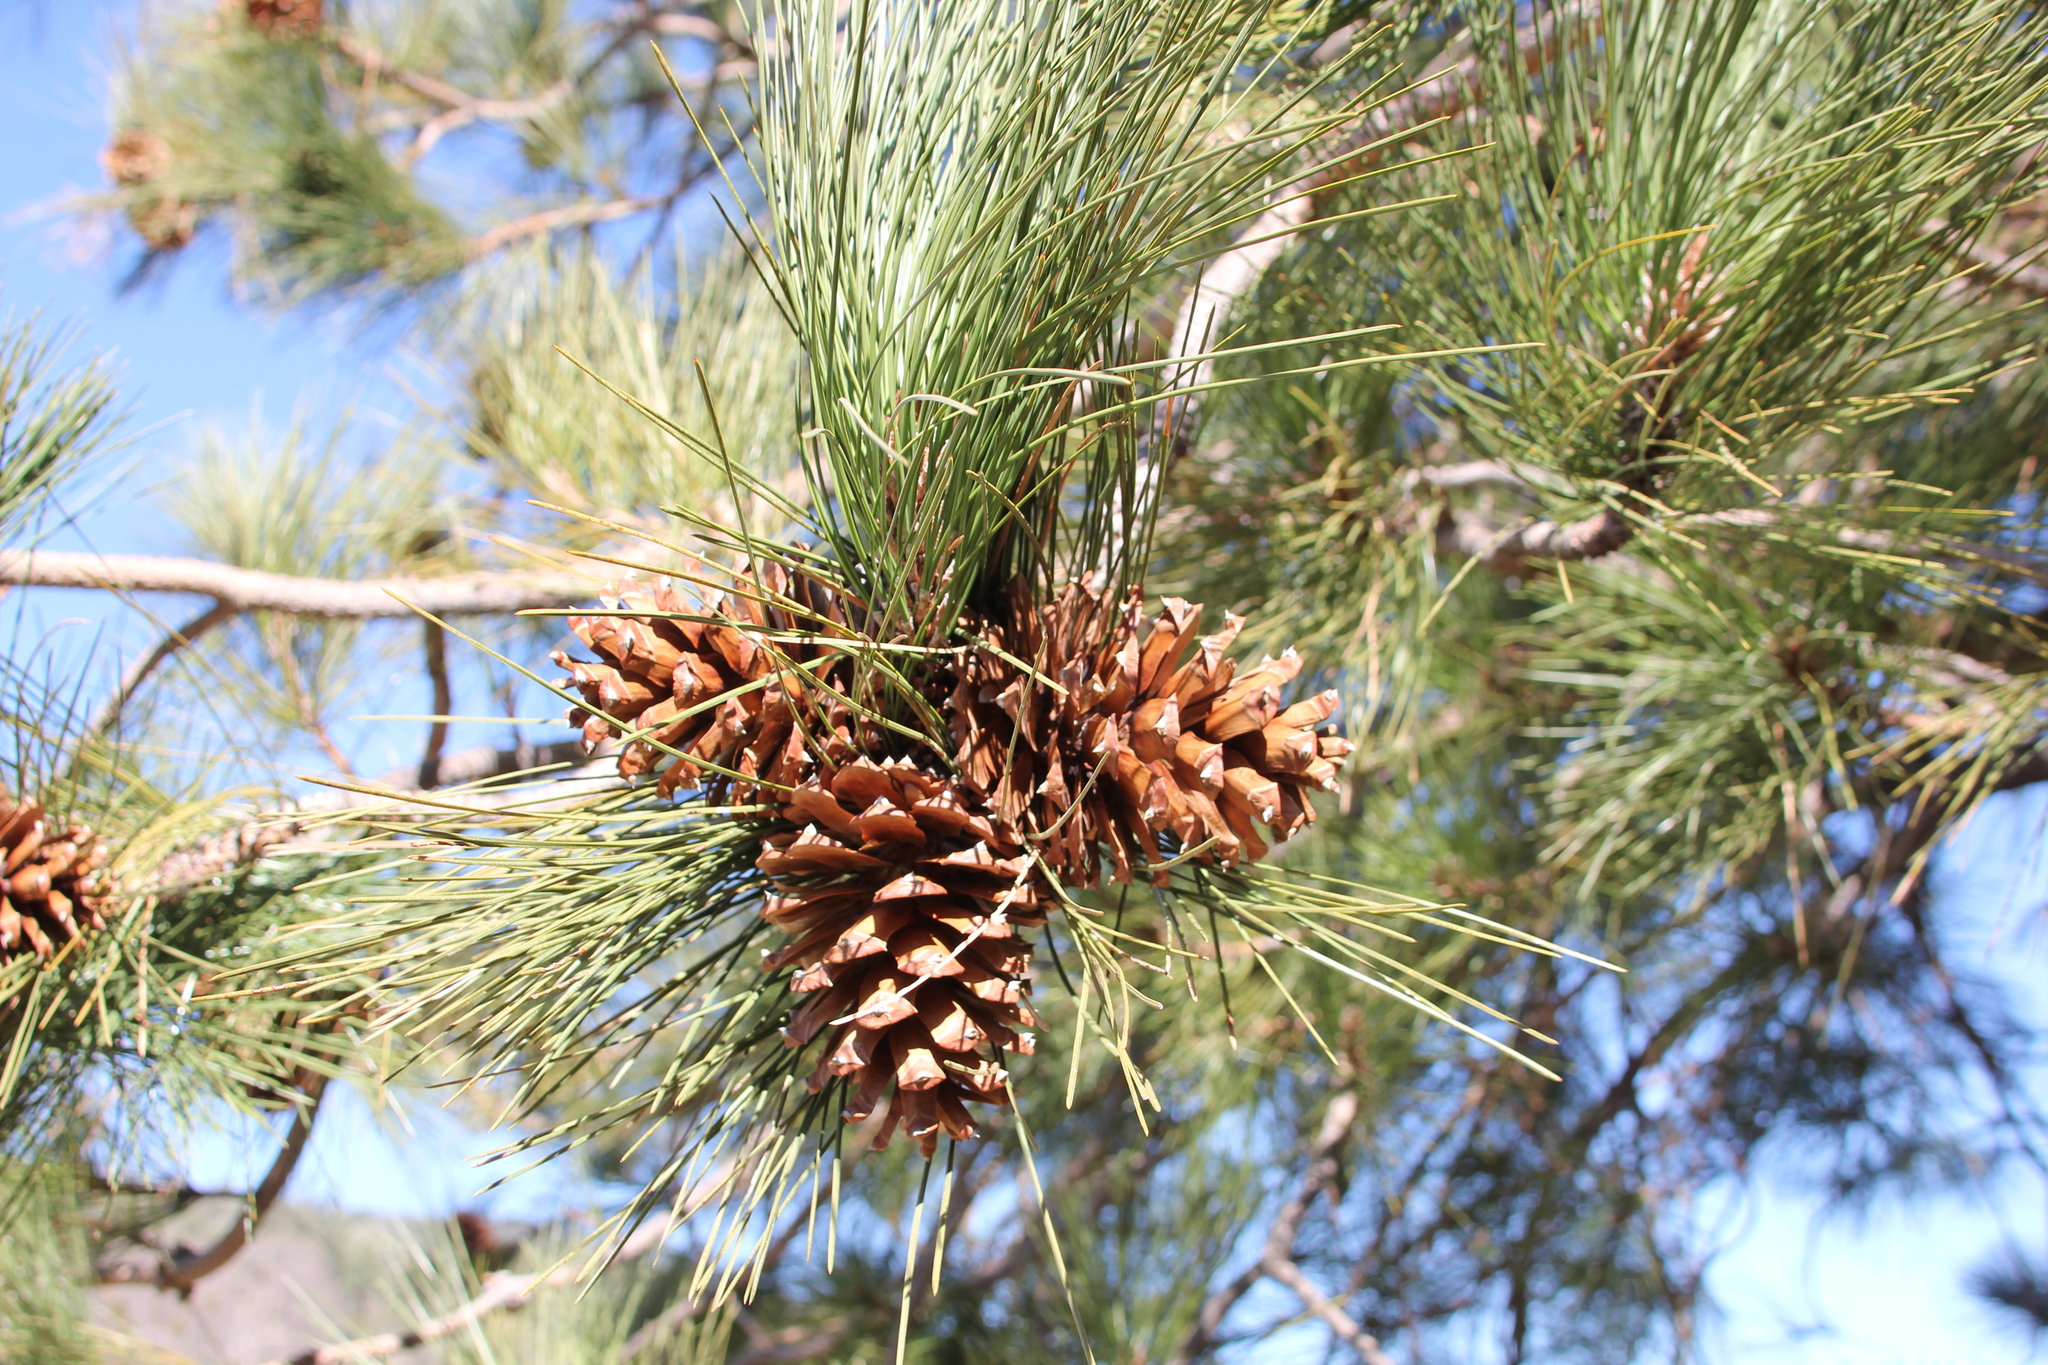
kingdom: Plantae
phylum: Tracheophyta
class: Pinopsida
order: Pinales
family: Pinaceae
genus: Pinus
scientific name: Pinus jeffreyi
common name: Jeffrey pine
